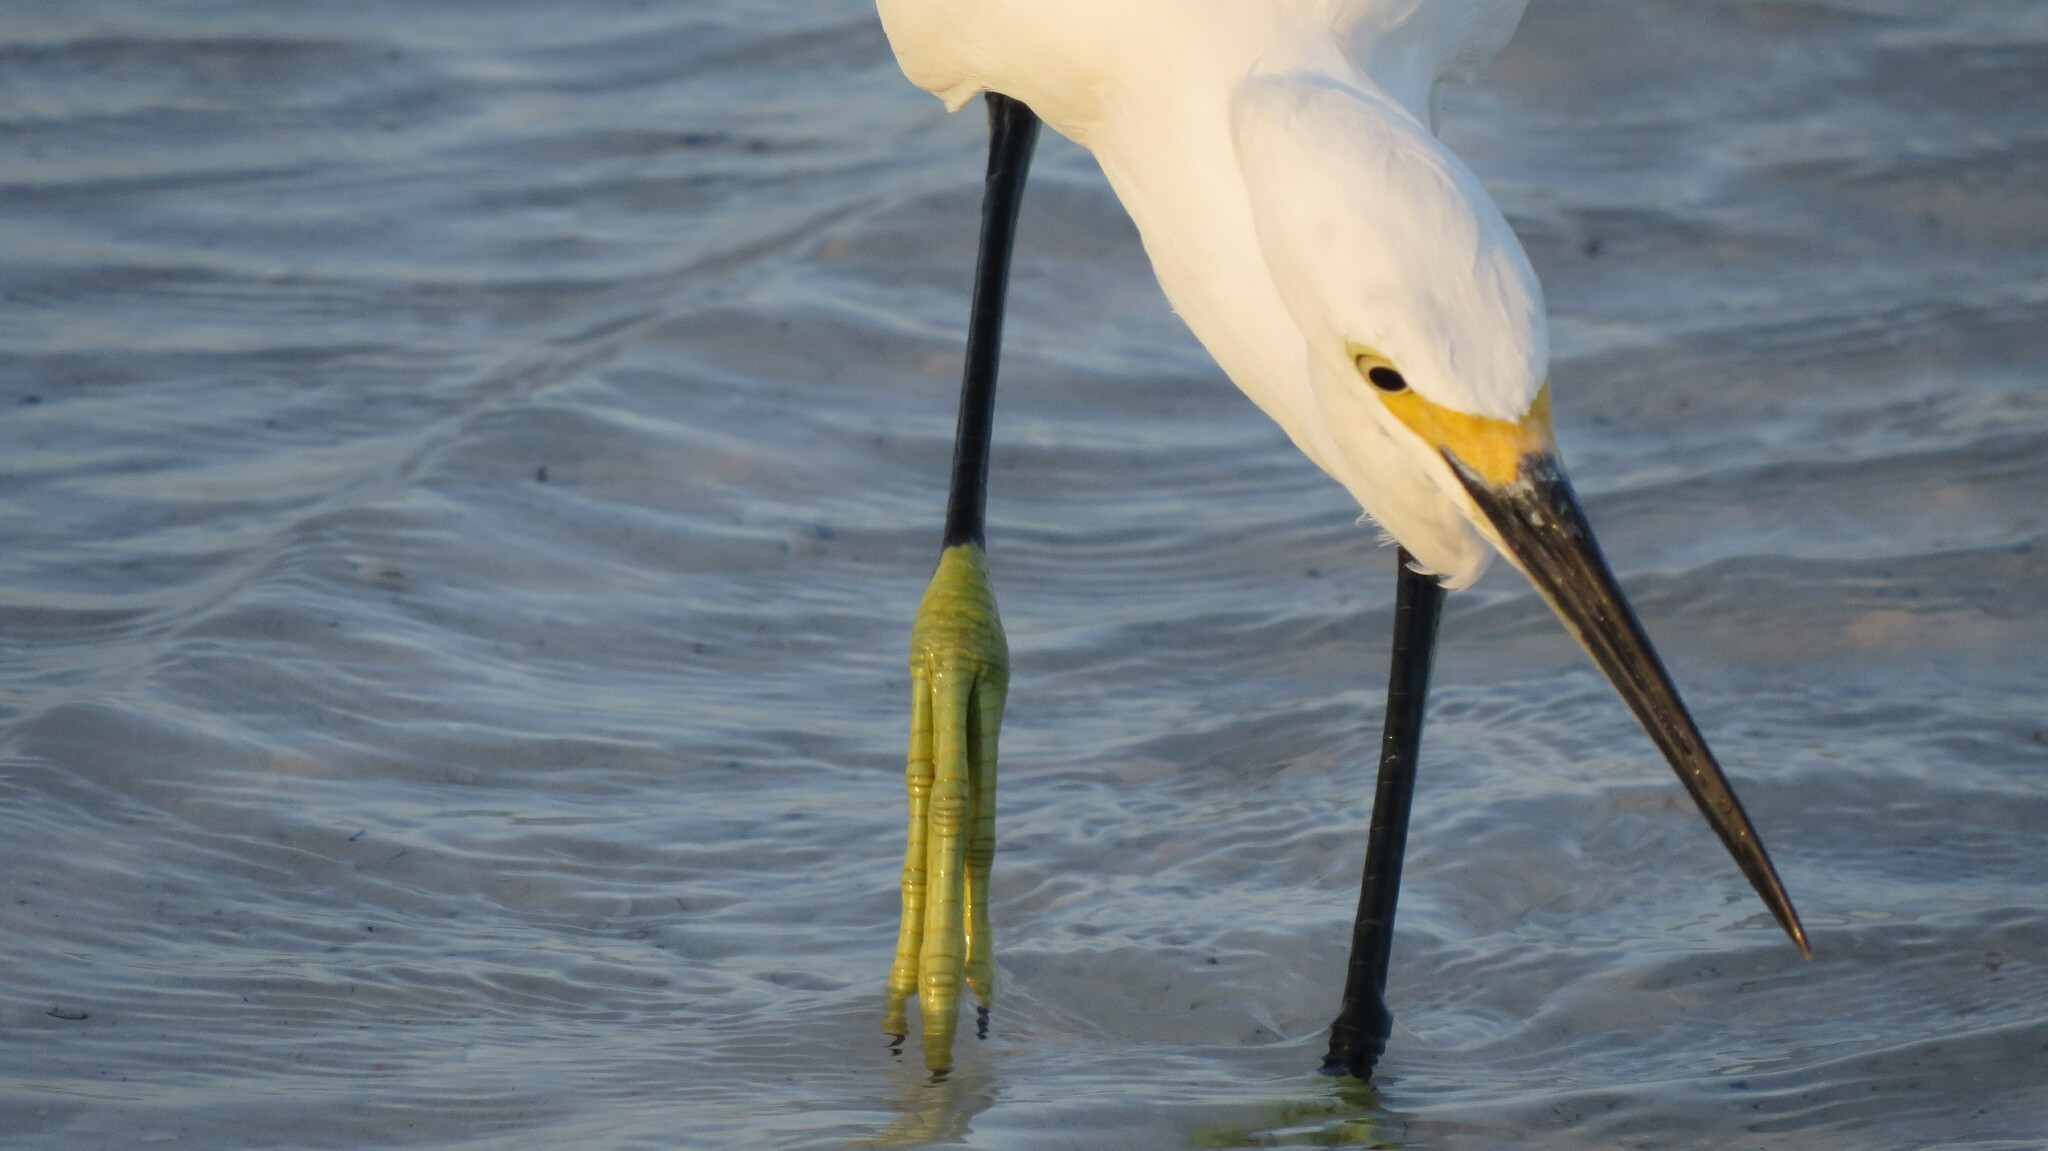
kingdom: Animalia
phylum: Chordata
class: Aves
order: Pelecaniformes
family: Ardeidae
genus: Egretta
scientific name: Egretta thula
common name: Snowy egret
